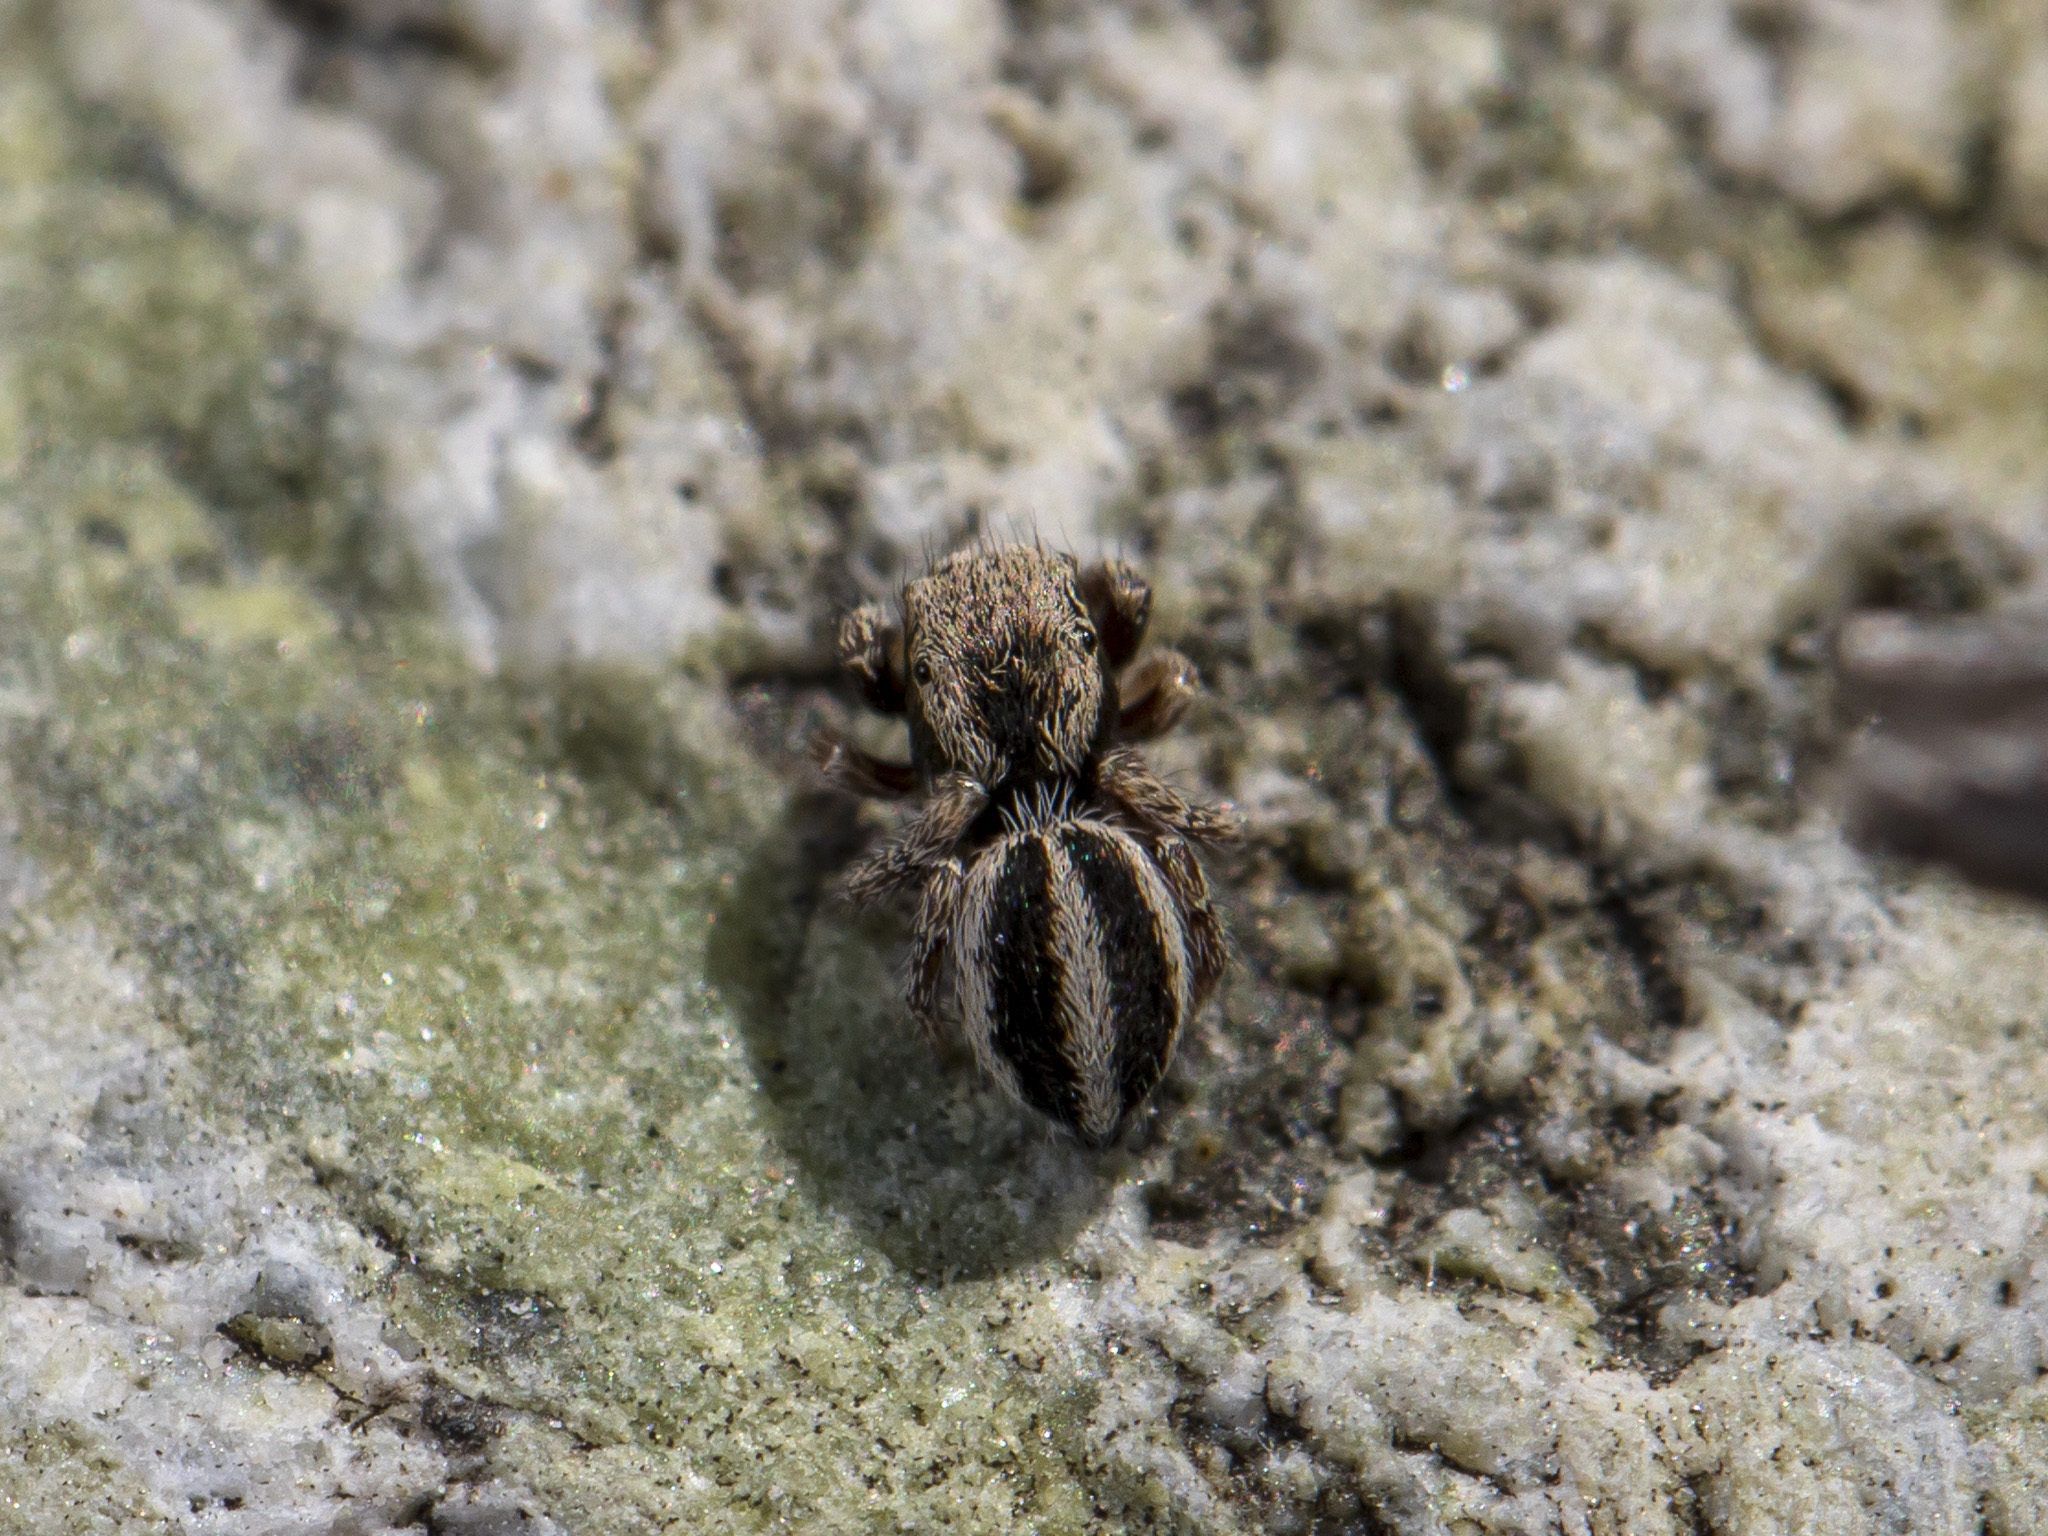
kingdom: Animalia
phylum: Arthropoda
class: Arachnida
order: Araneae
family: Salticidae
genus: Pellenes
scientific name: Pellenes epularis
